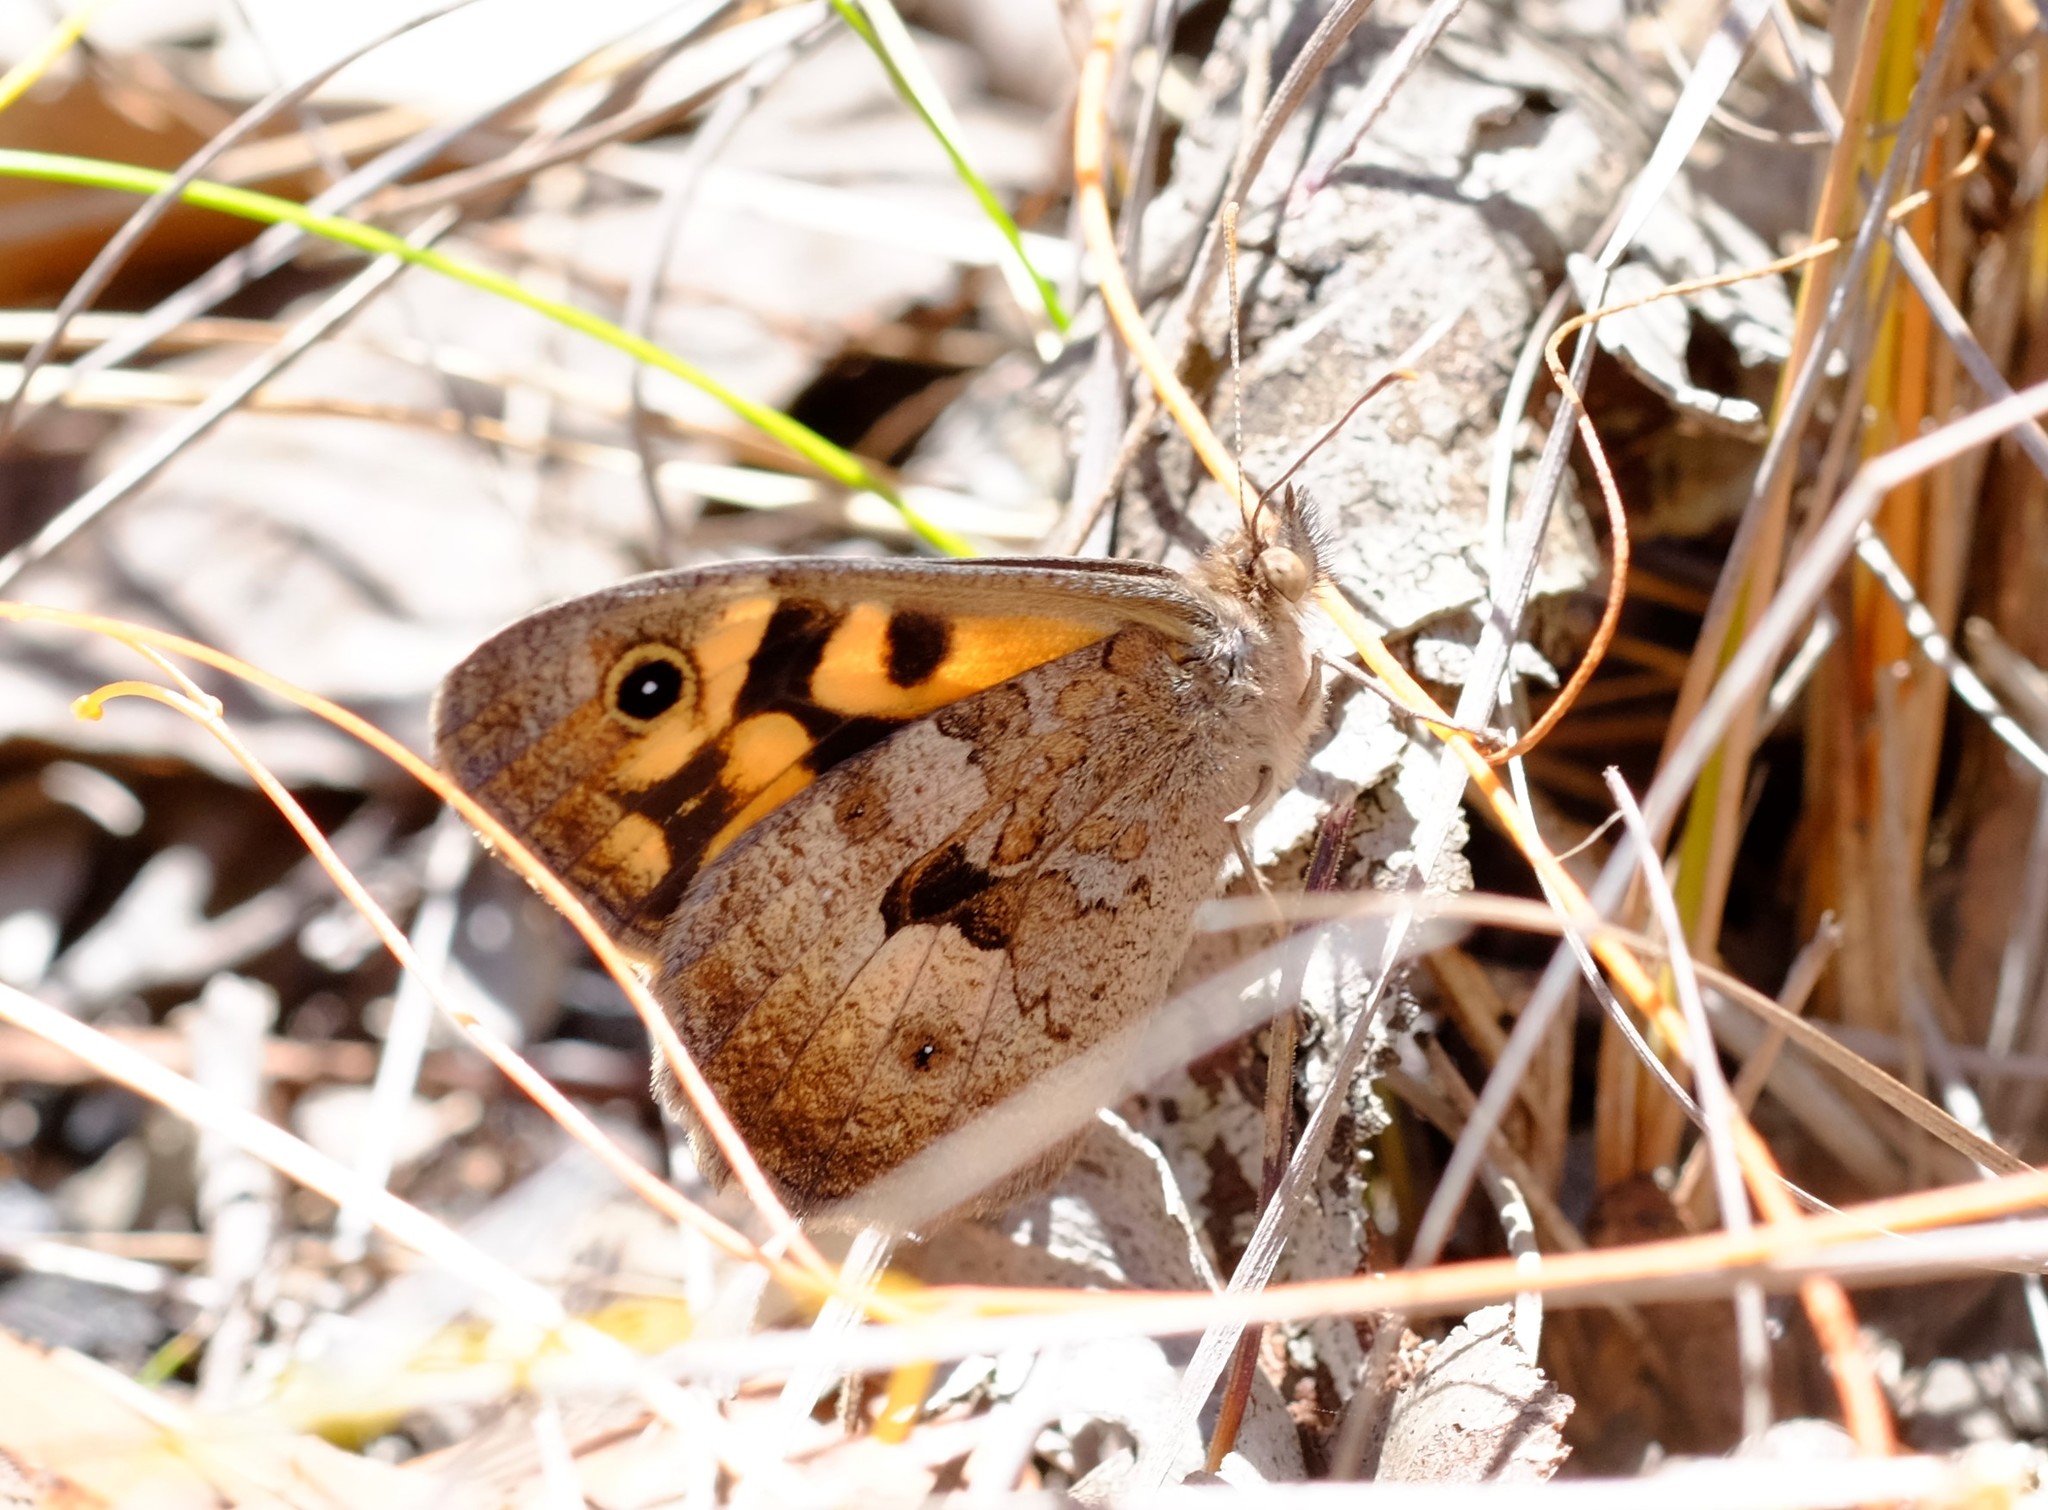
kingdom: Animalia
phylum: Arthropoda
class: Insecta
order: Lepidoptera
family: Nymphalidae
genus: Geitoneura
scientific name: Geitoneura klugii
